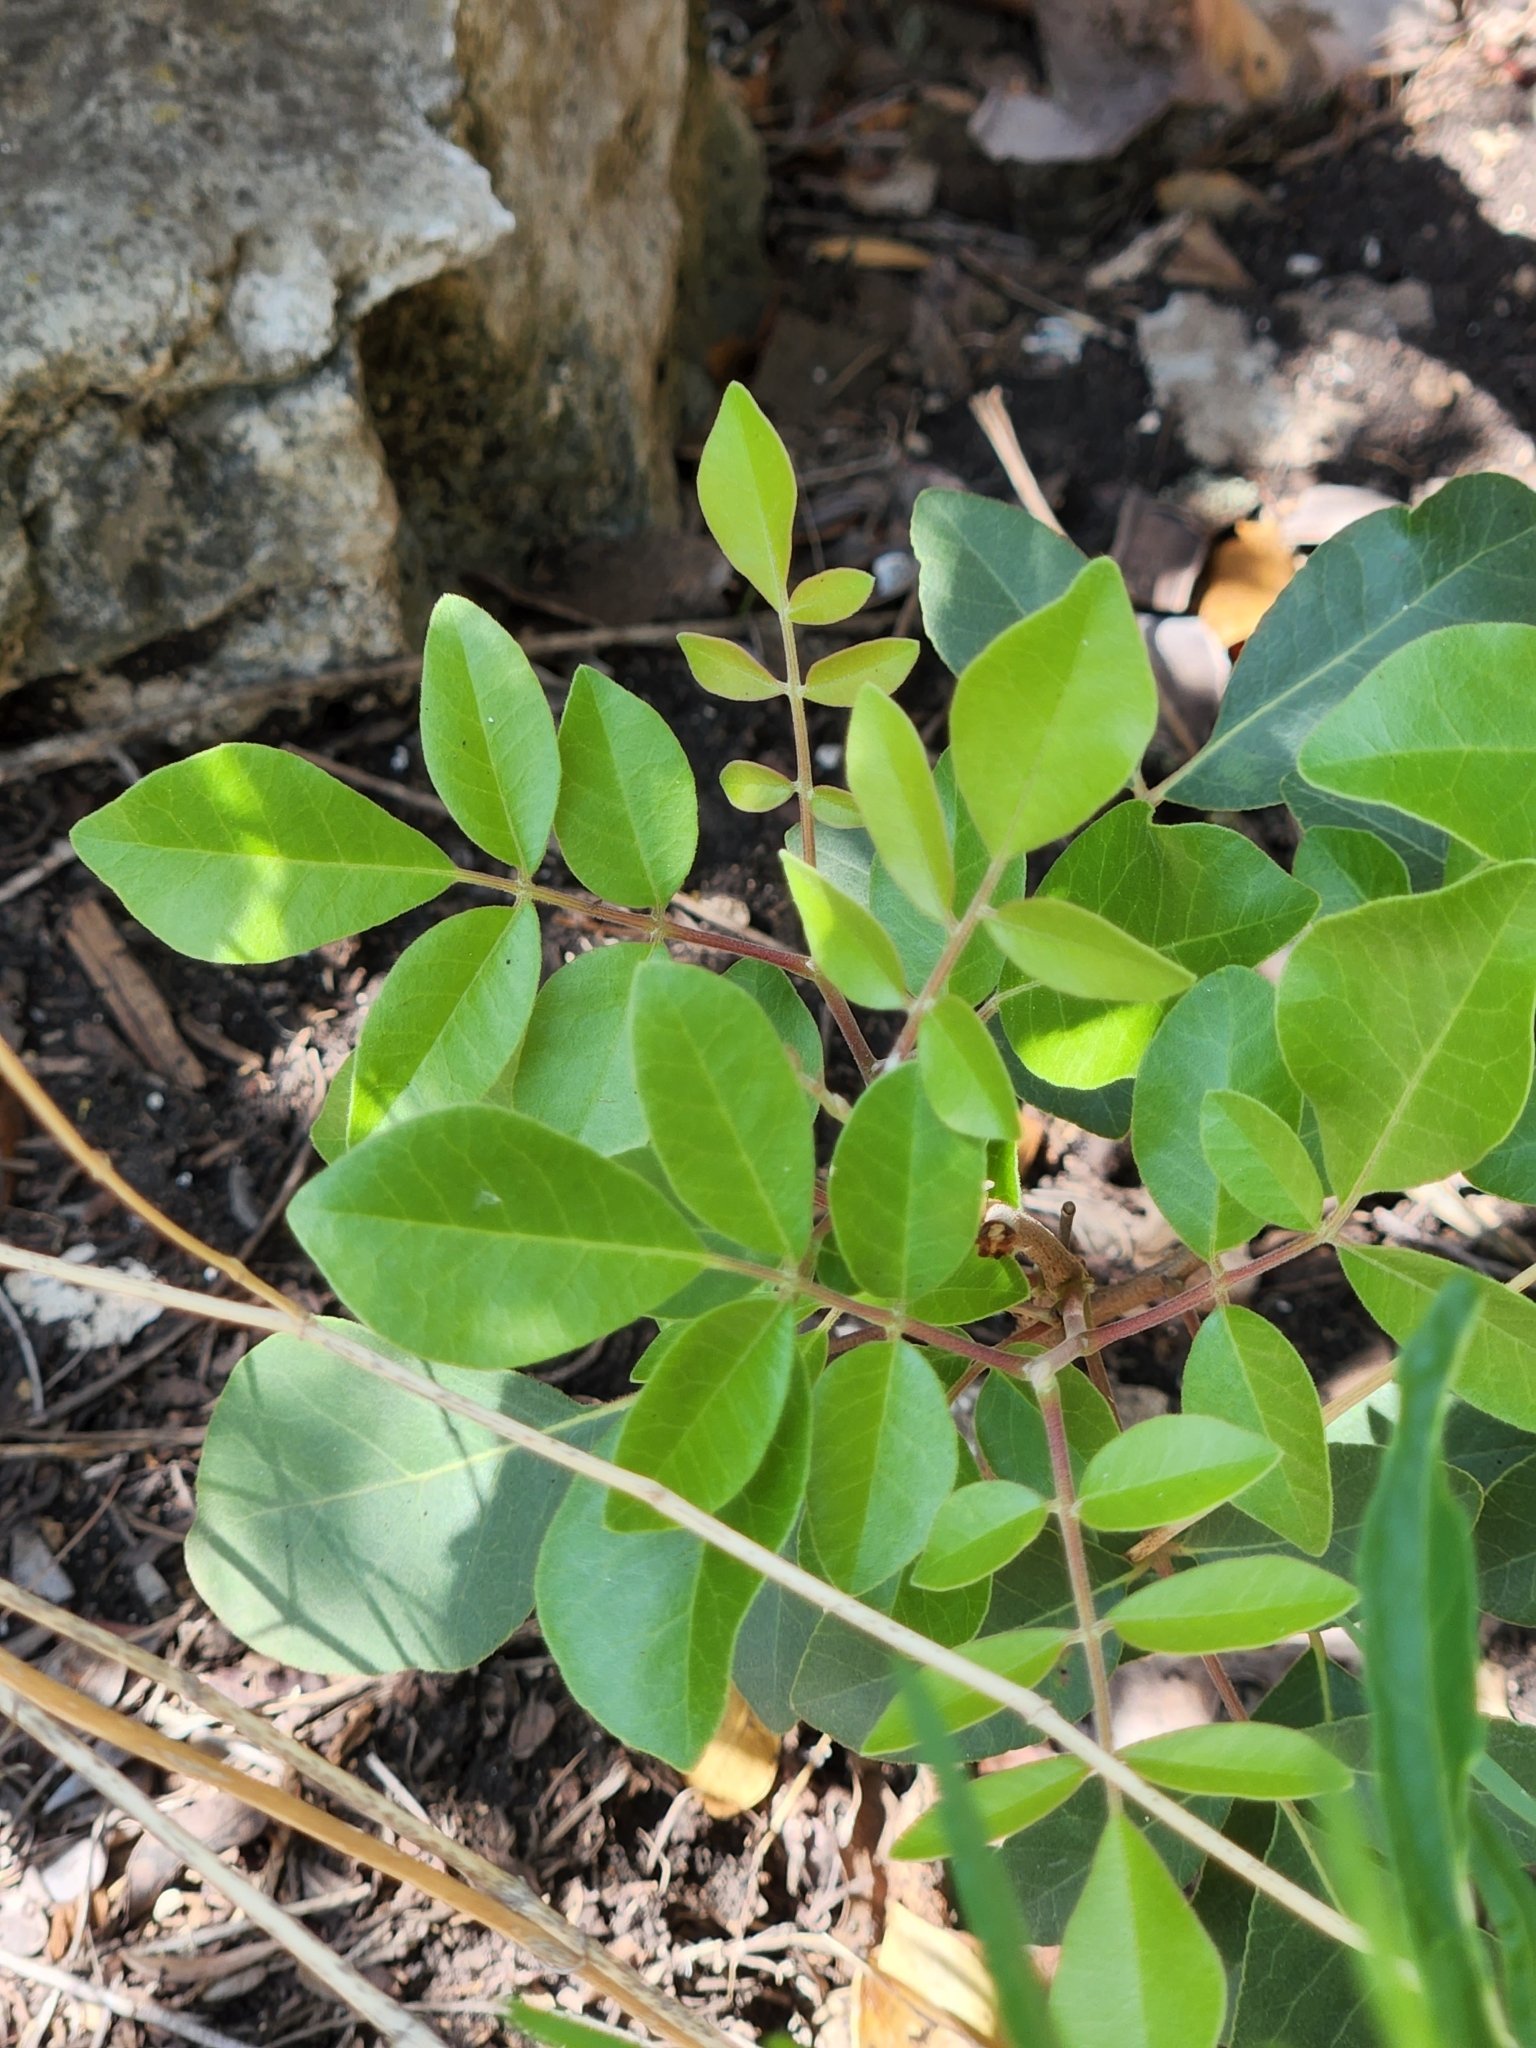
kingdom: Plantae
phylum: Tracheophyta
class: Magnoliopsida
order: Sapindales
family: Anacardiaceae
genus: Rhus
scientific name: Rhus virens
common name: Evergreen sumac
